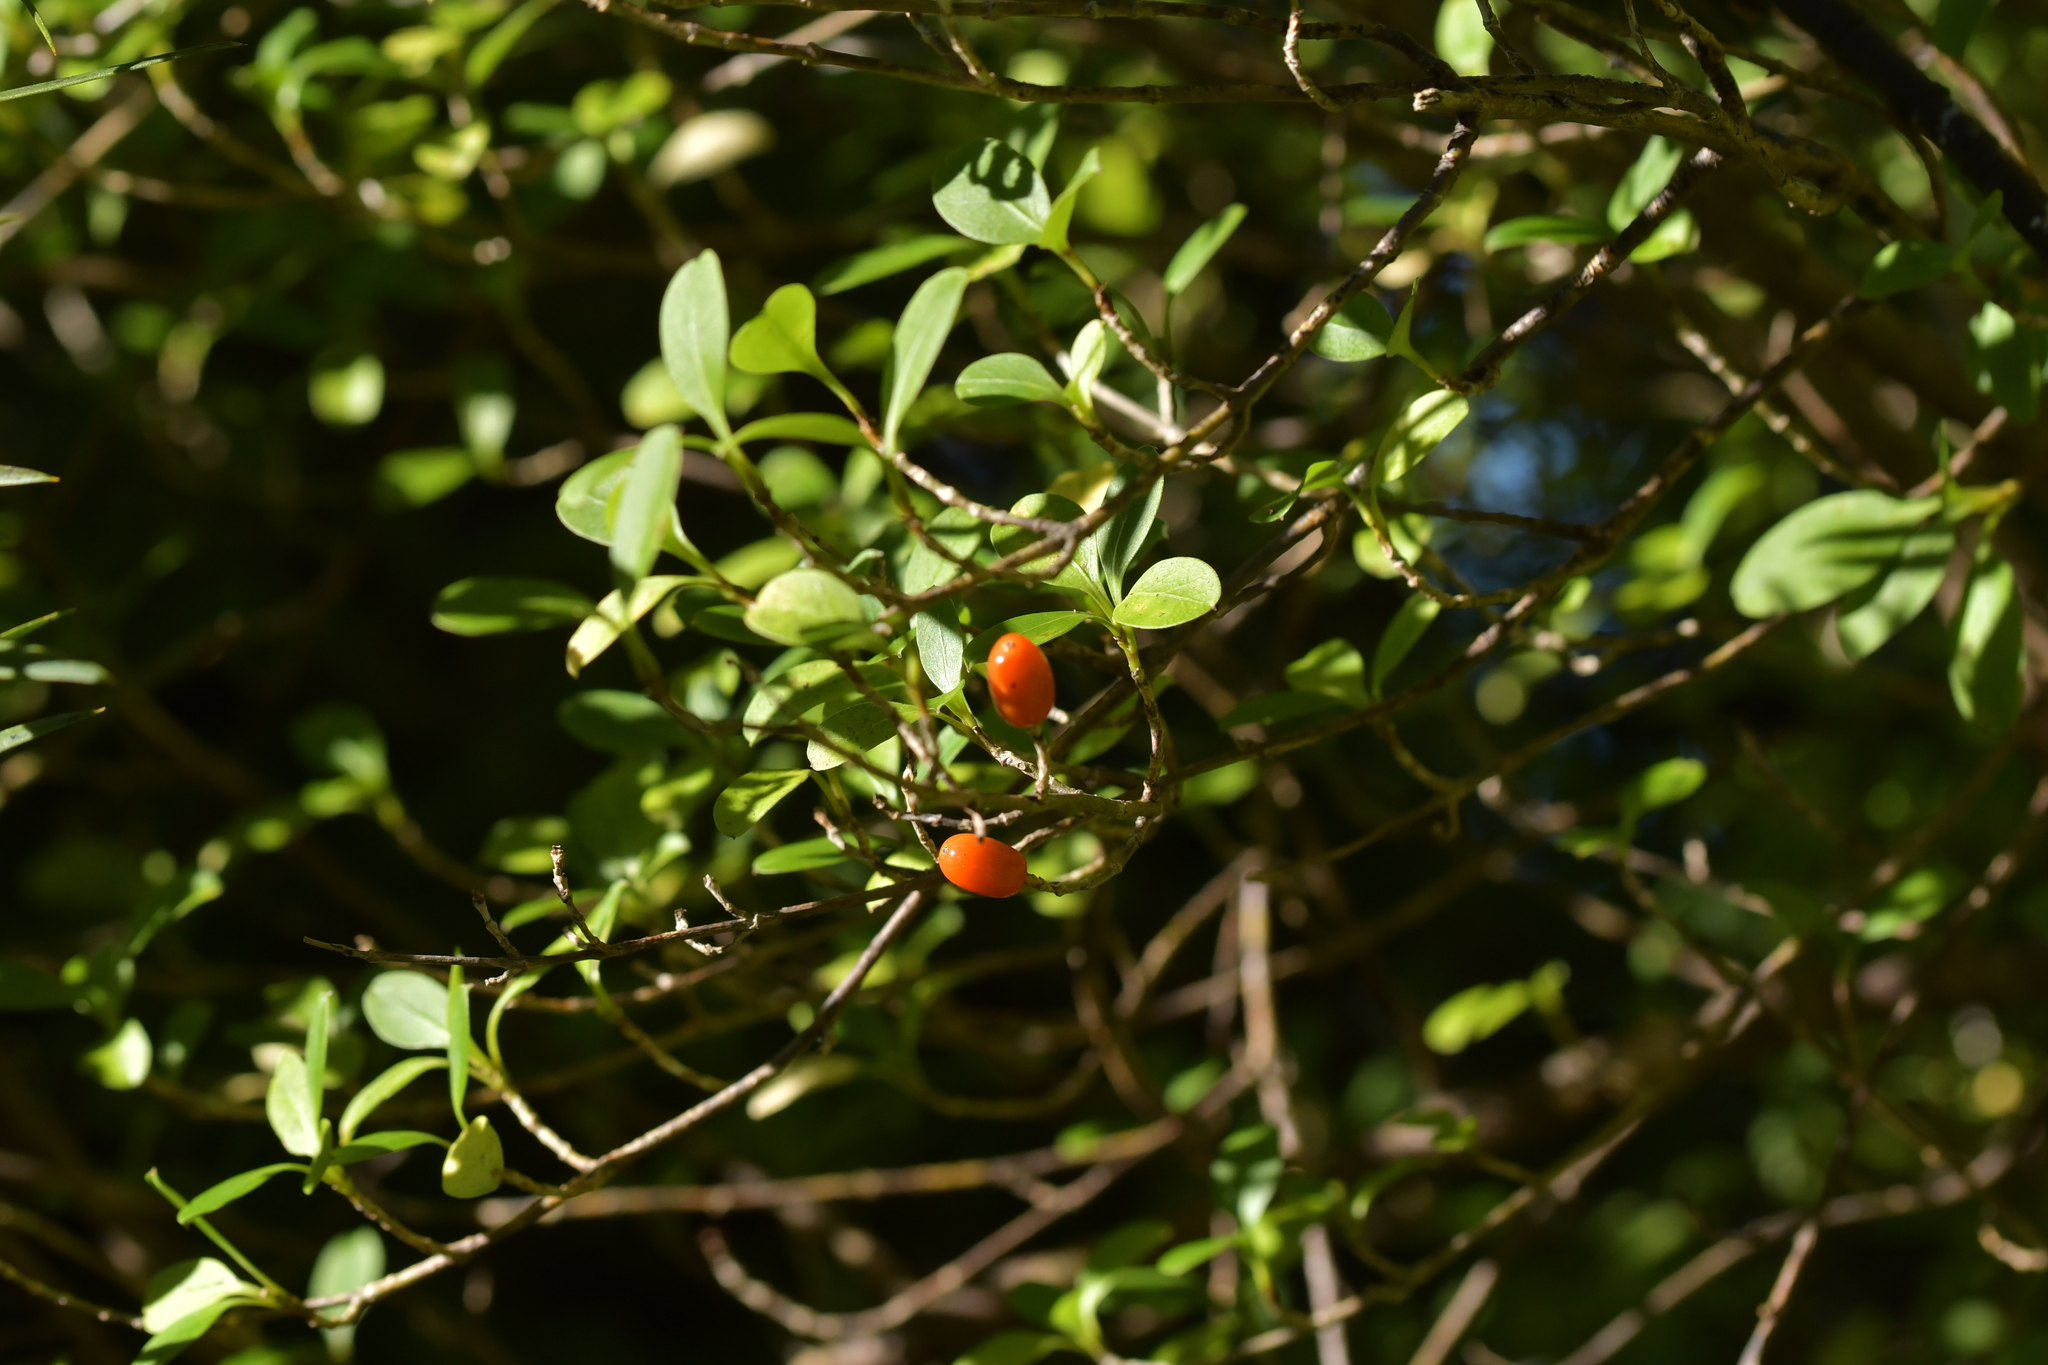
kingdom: Plantae
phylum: Tracheophyta
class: Magnoliopsida
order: Gentianales
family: Rubiaceae
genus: Coprosma
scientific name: Coprosma foetidissima
